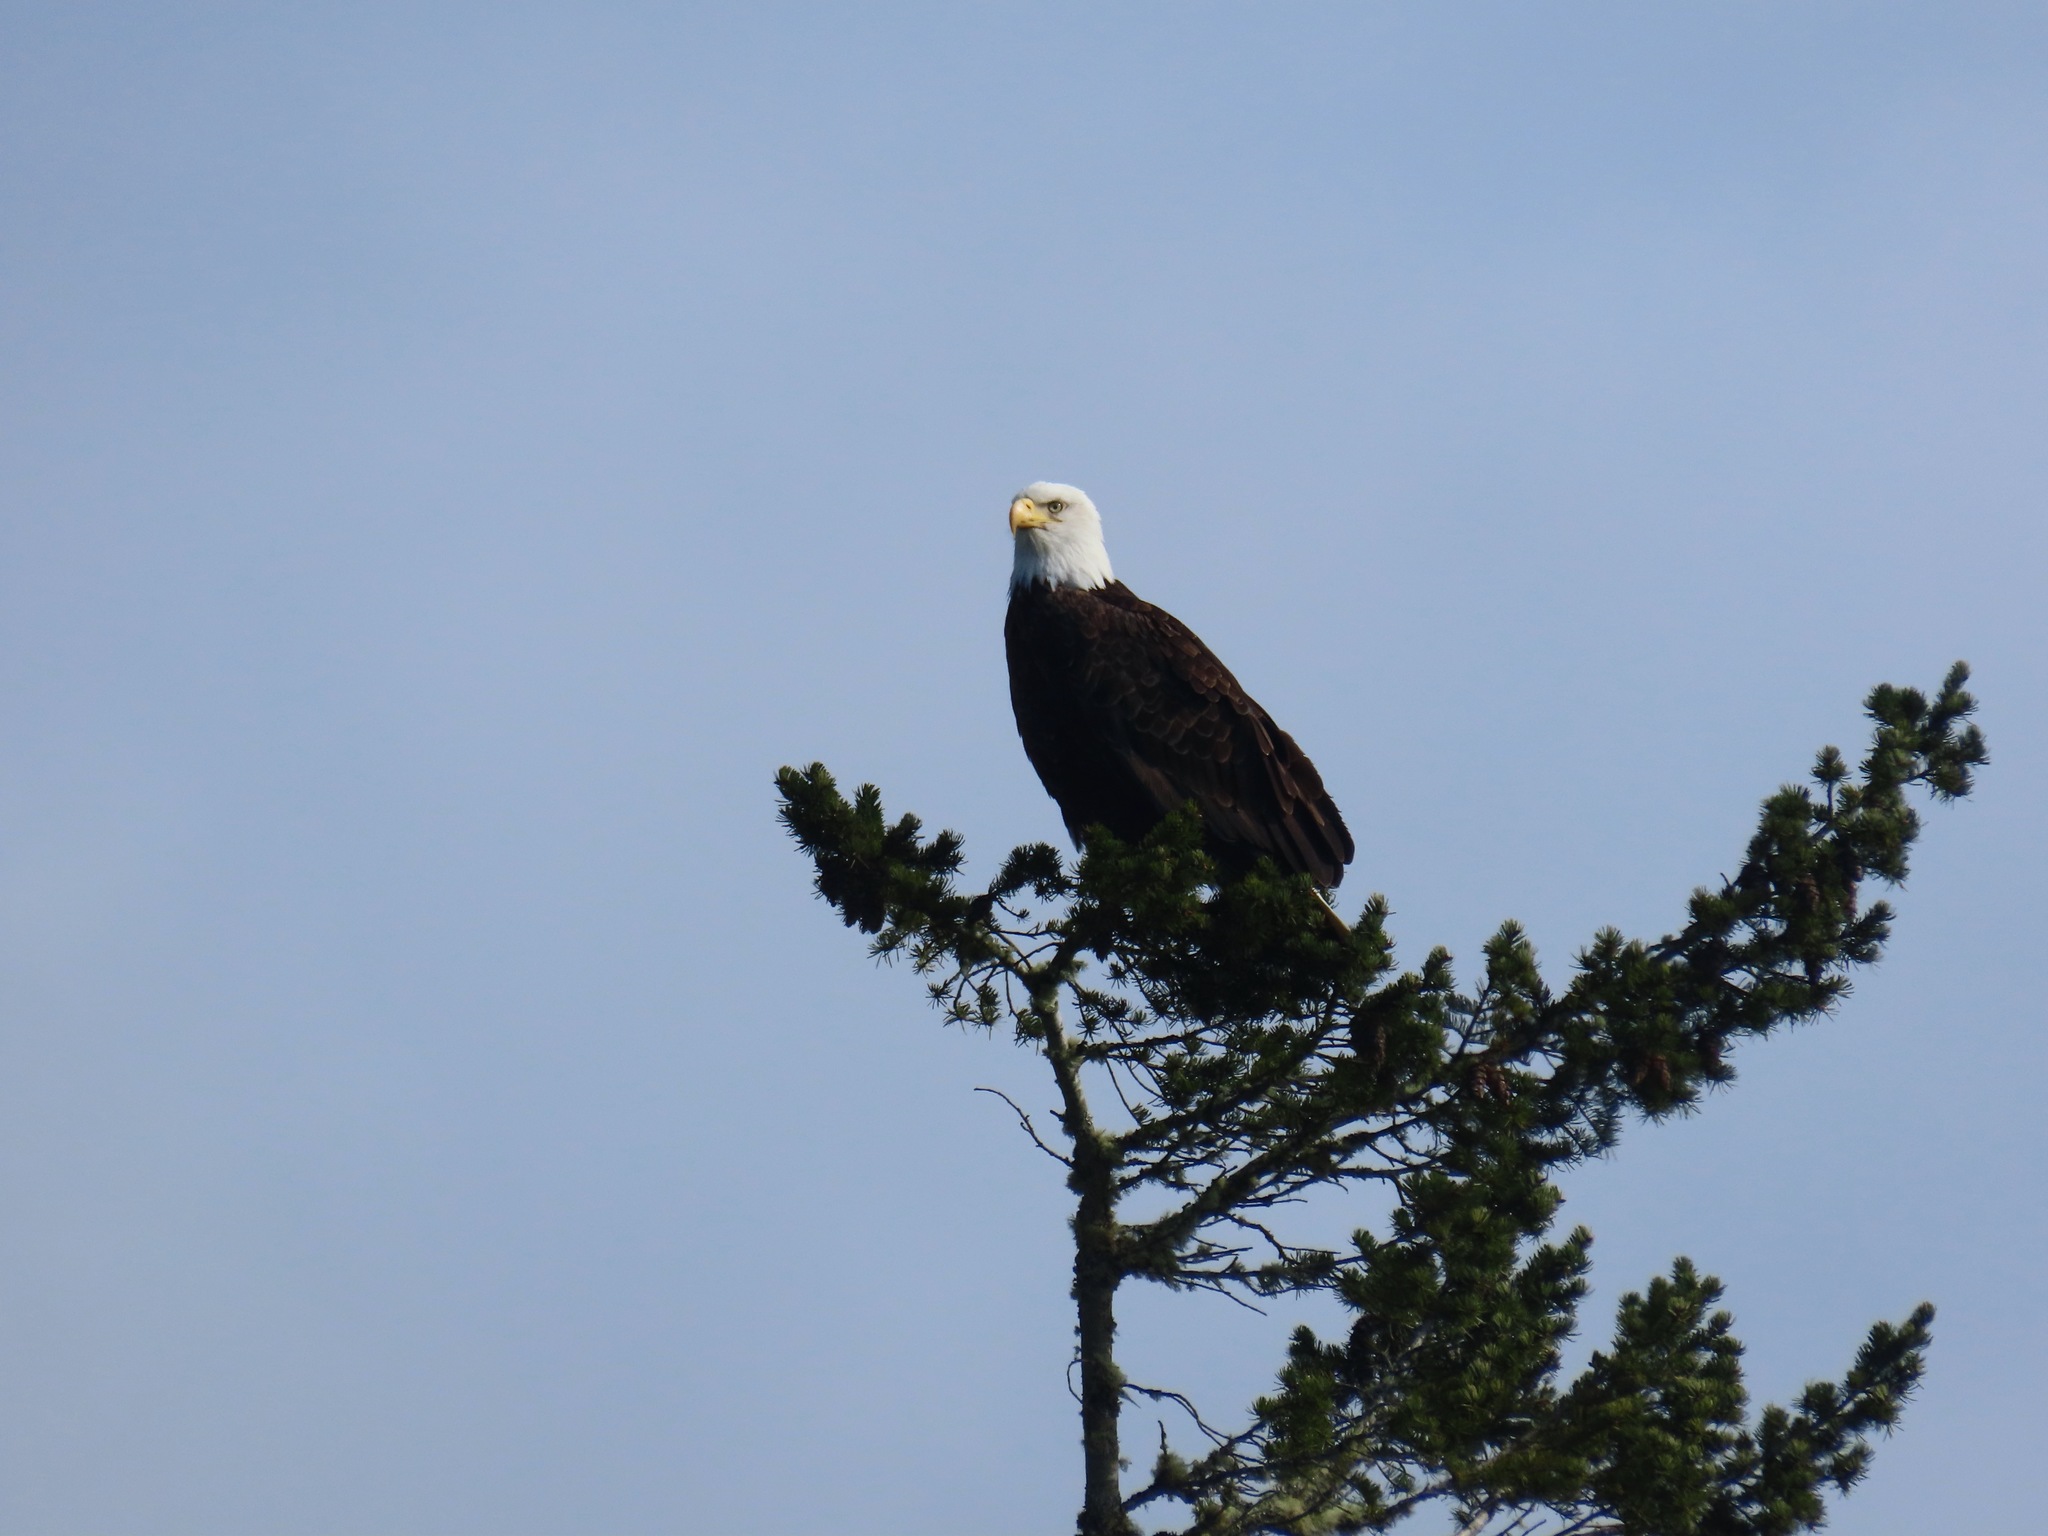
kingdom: Animalia
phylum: Chordata
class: Aves
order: Accipitriformes
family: Accipitridae
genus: Haliaeetus
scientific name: Haliaeetus leucocephalus
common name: Bald eagle
